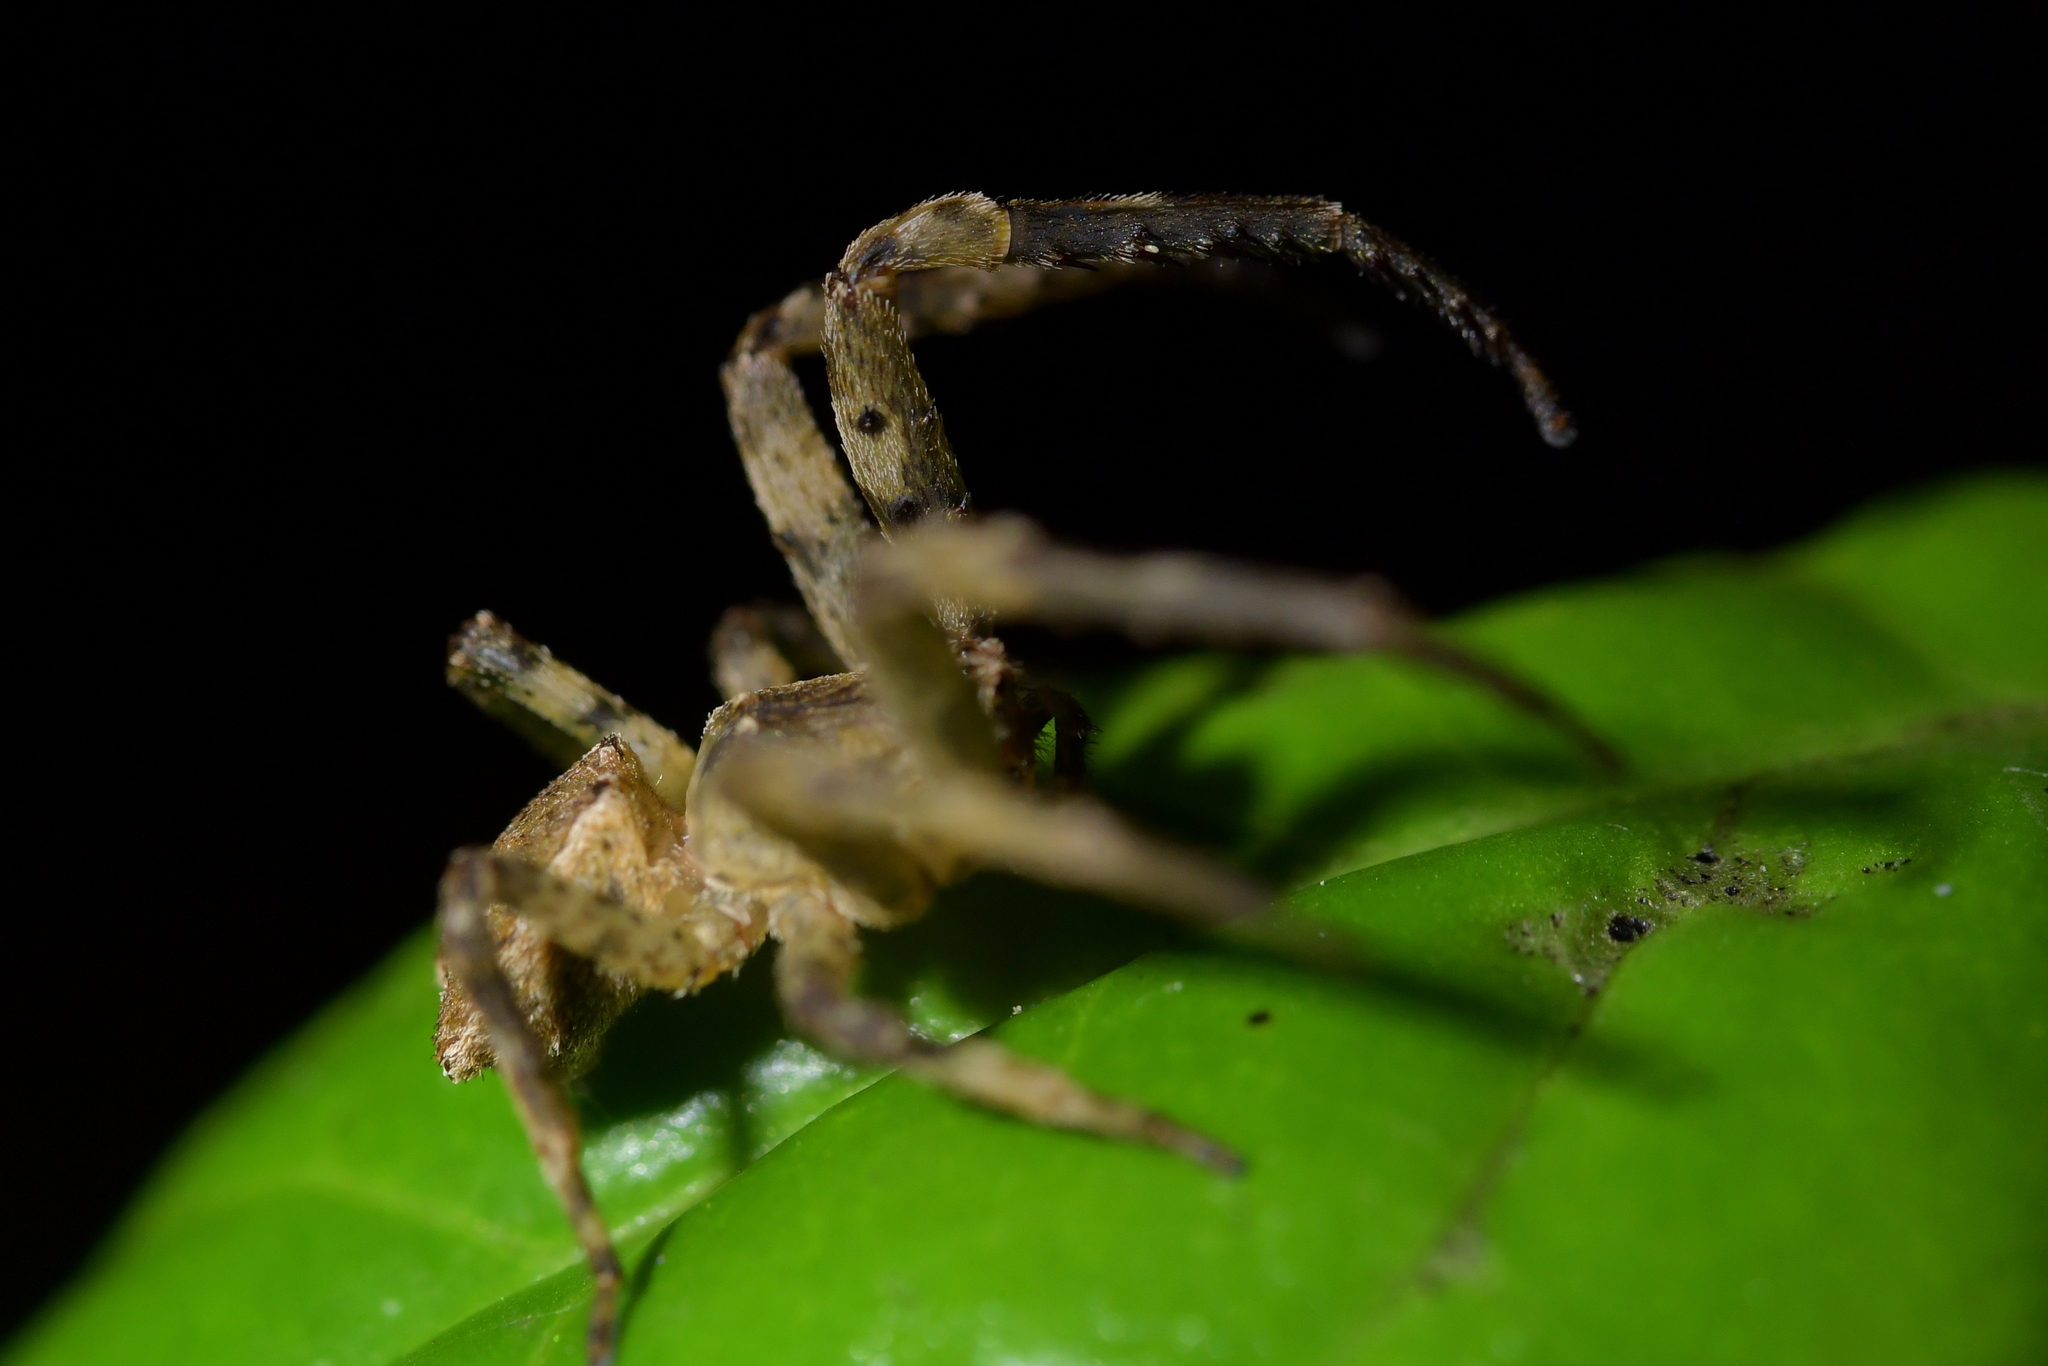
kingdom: Animalia
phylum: Arthropoda
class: Arachnida
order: Araneae
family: Thomisidae
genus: Sidymella
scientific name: Sidymella angularis
